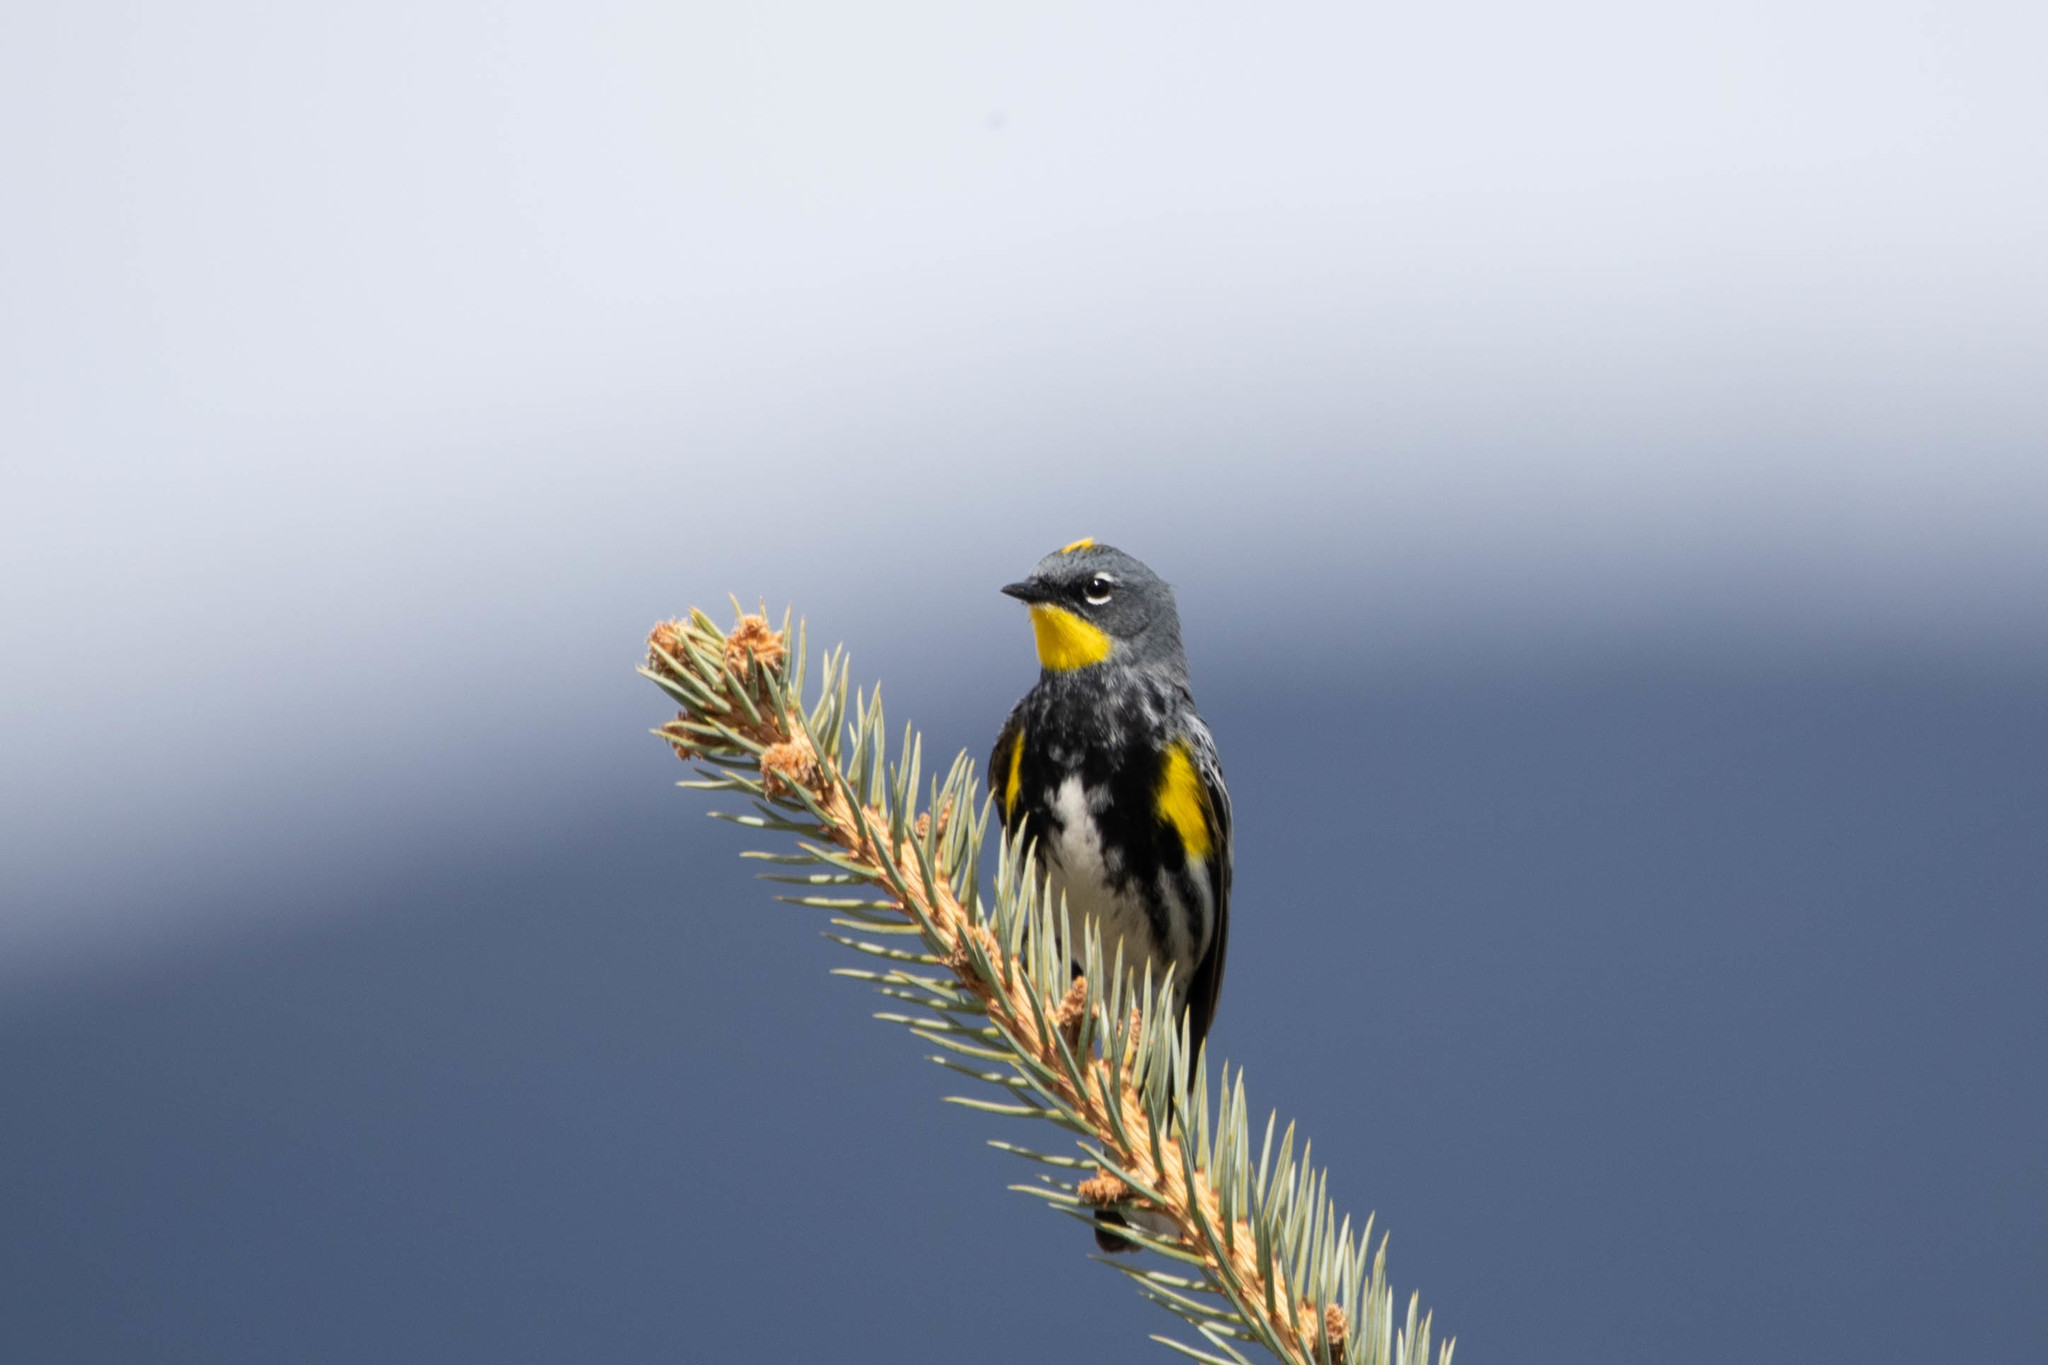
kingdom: Animalia
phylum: Chordata
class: Aves
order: Passeriformes
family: Parulidae
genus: Setophaga
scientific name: Setophaga auduboni
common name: Audubon's warbler
